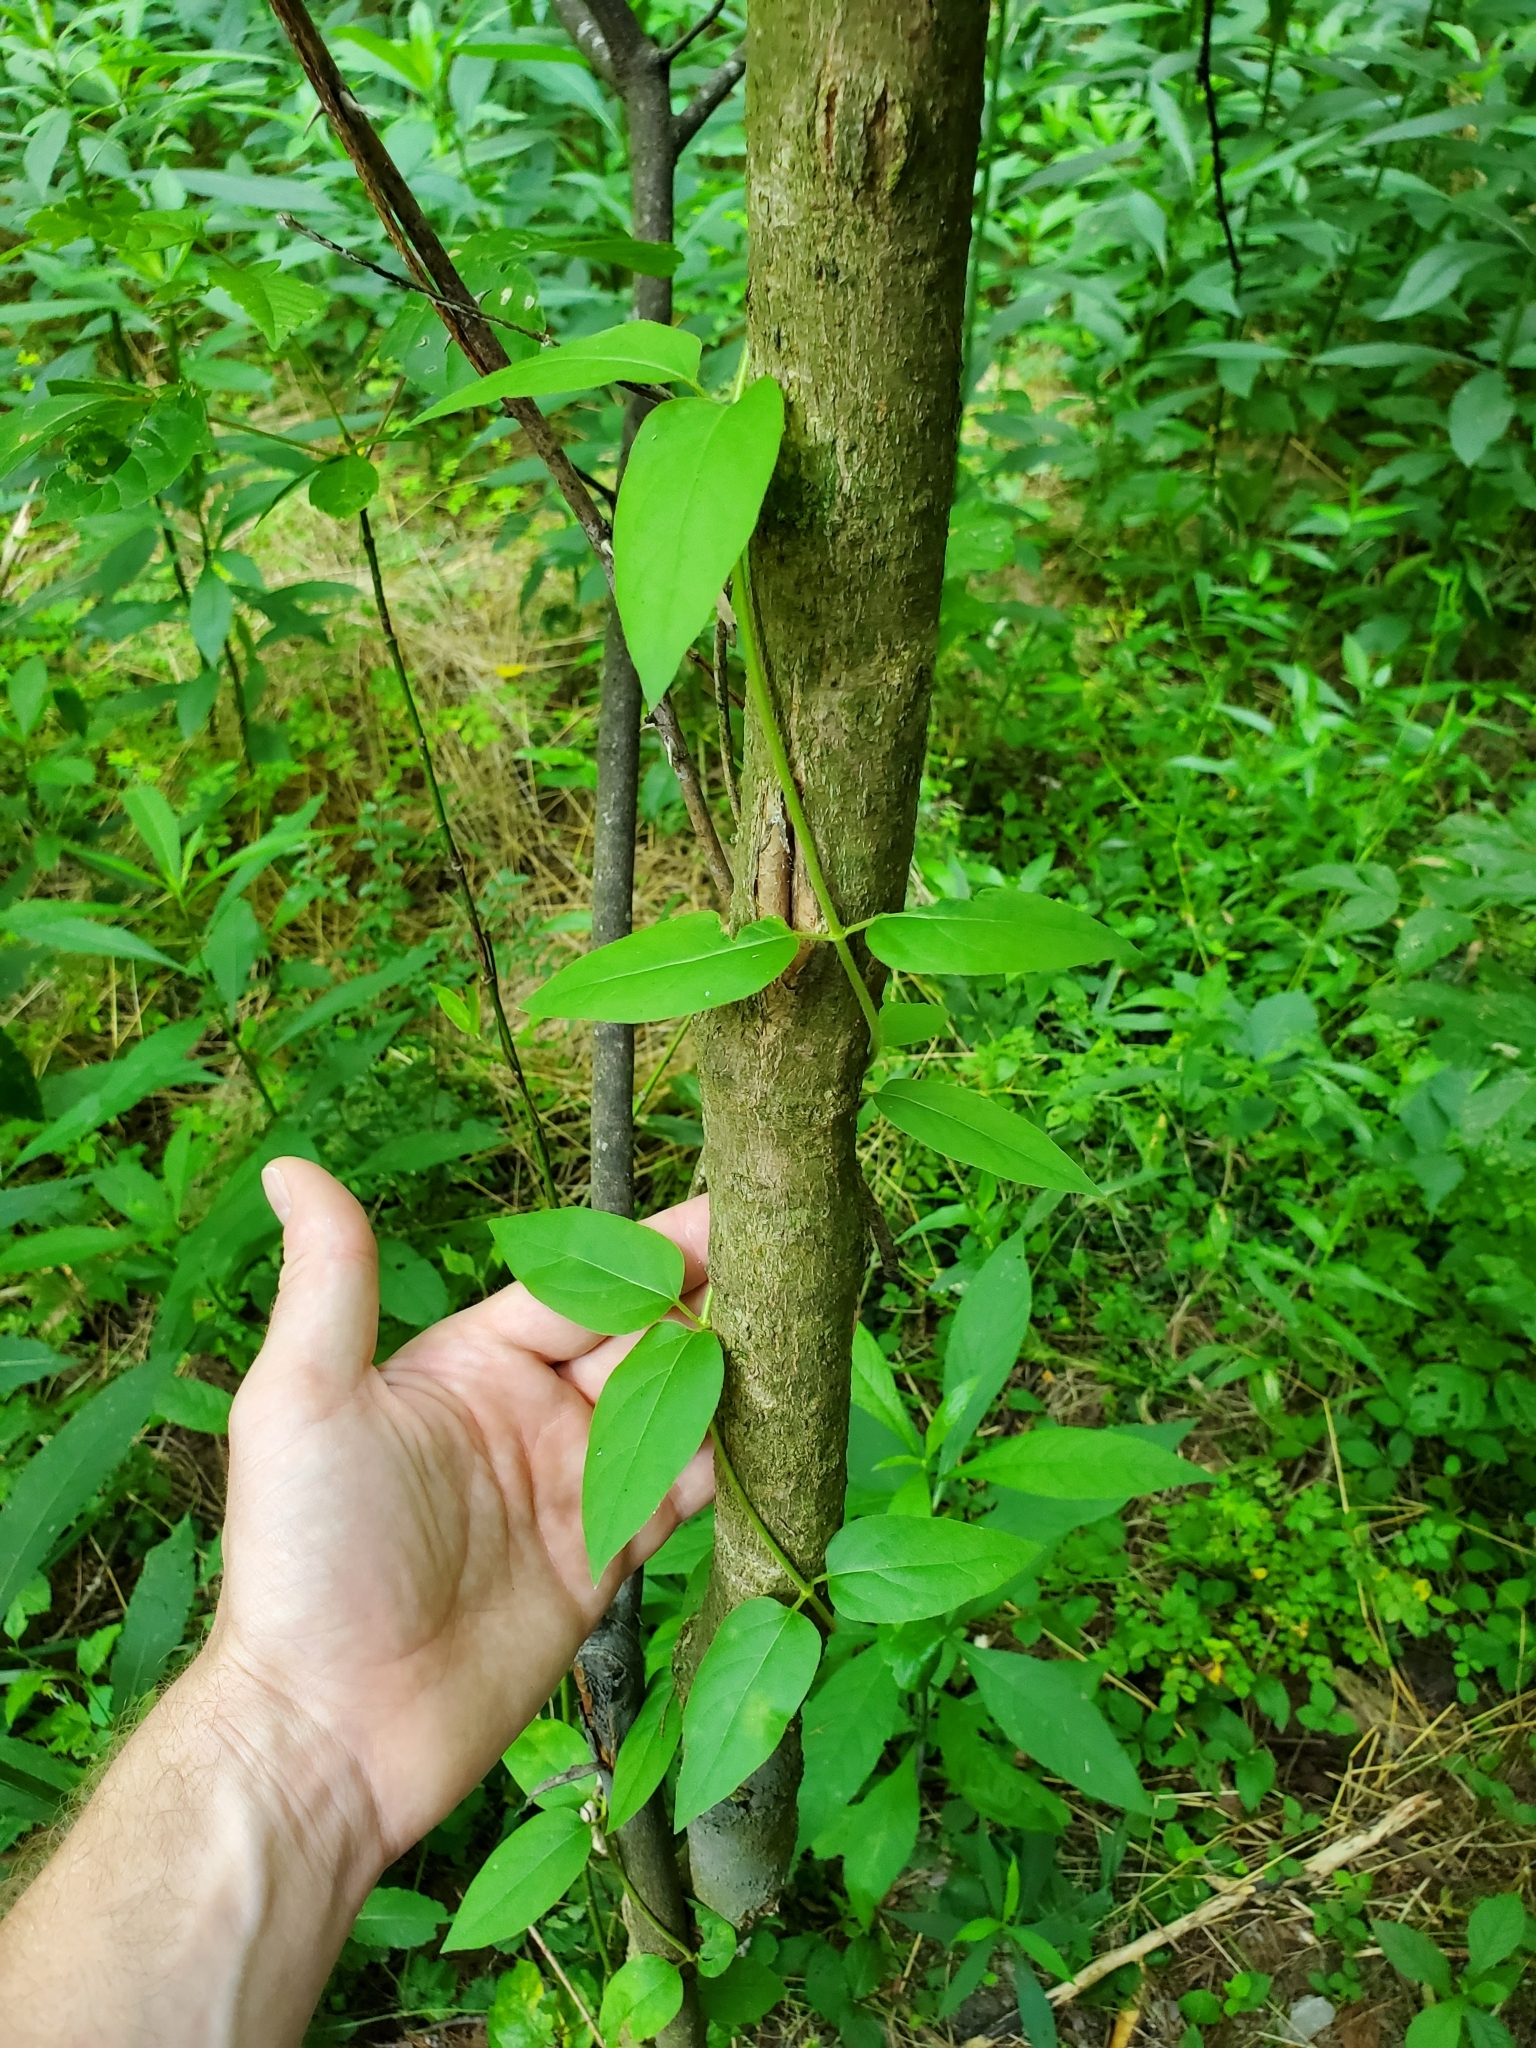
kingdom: Plantae
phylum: Tracheophyta
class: Magnoliopsida
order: Dipsacales
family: Caprifoliaceae
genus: Lonicera
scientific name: Lonicera japonica
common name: Japanese honeysuckle
